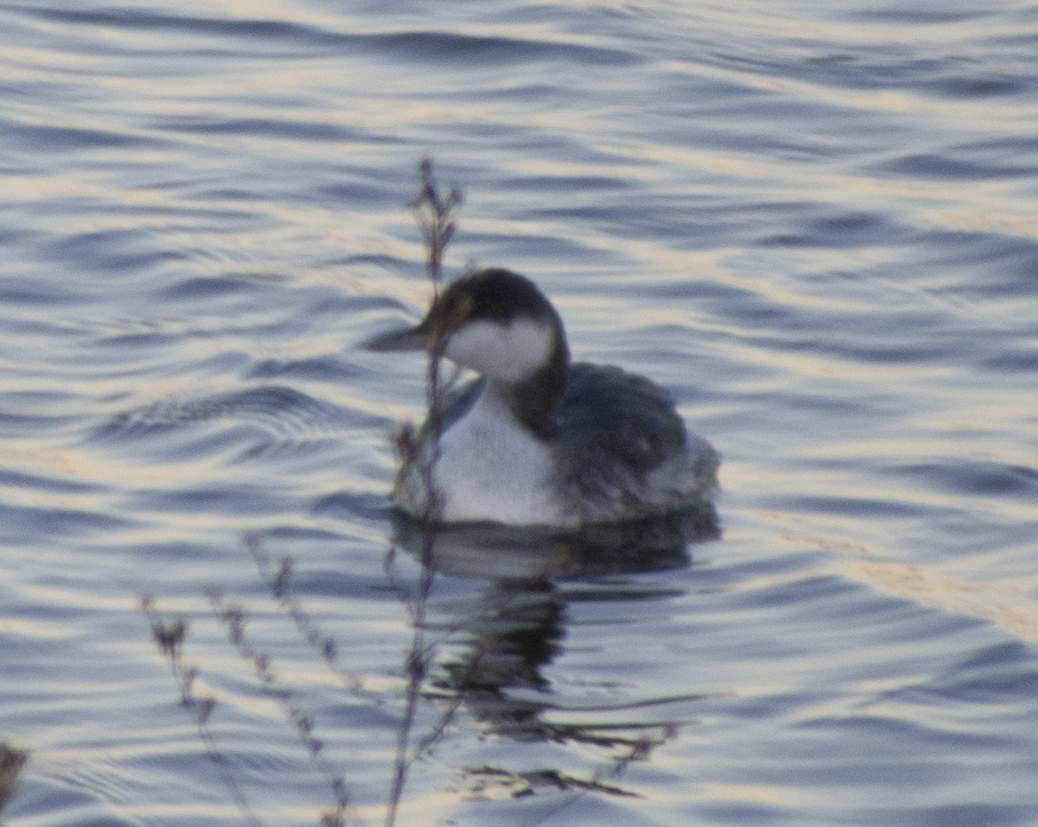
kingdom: Animalia
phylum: Chordata
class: Aves
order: Podicipediformes
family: Podicipedidae
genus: Podiceps
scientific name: Podiceps auritus
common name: Horned grebe
